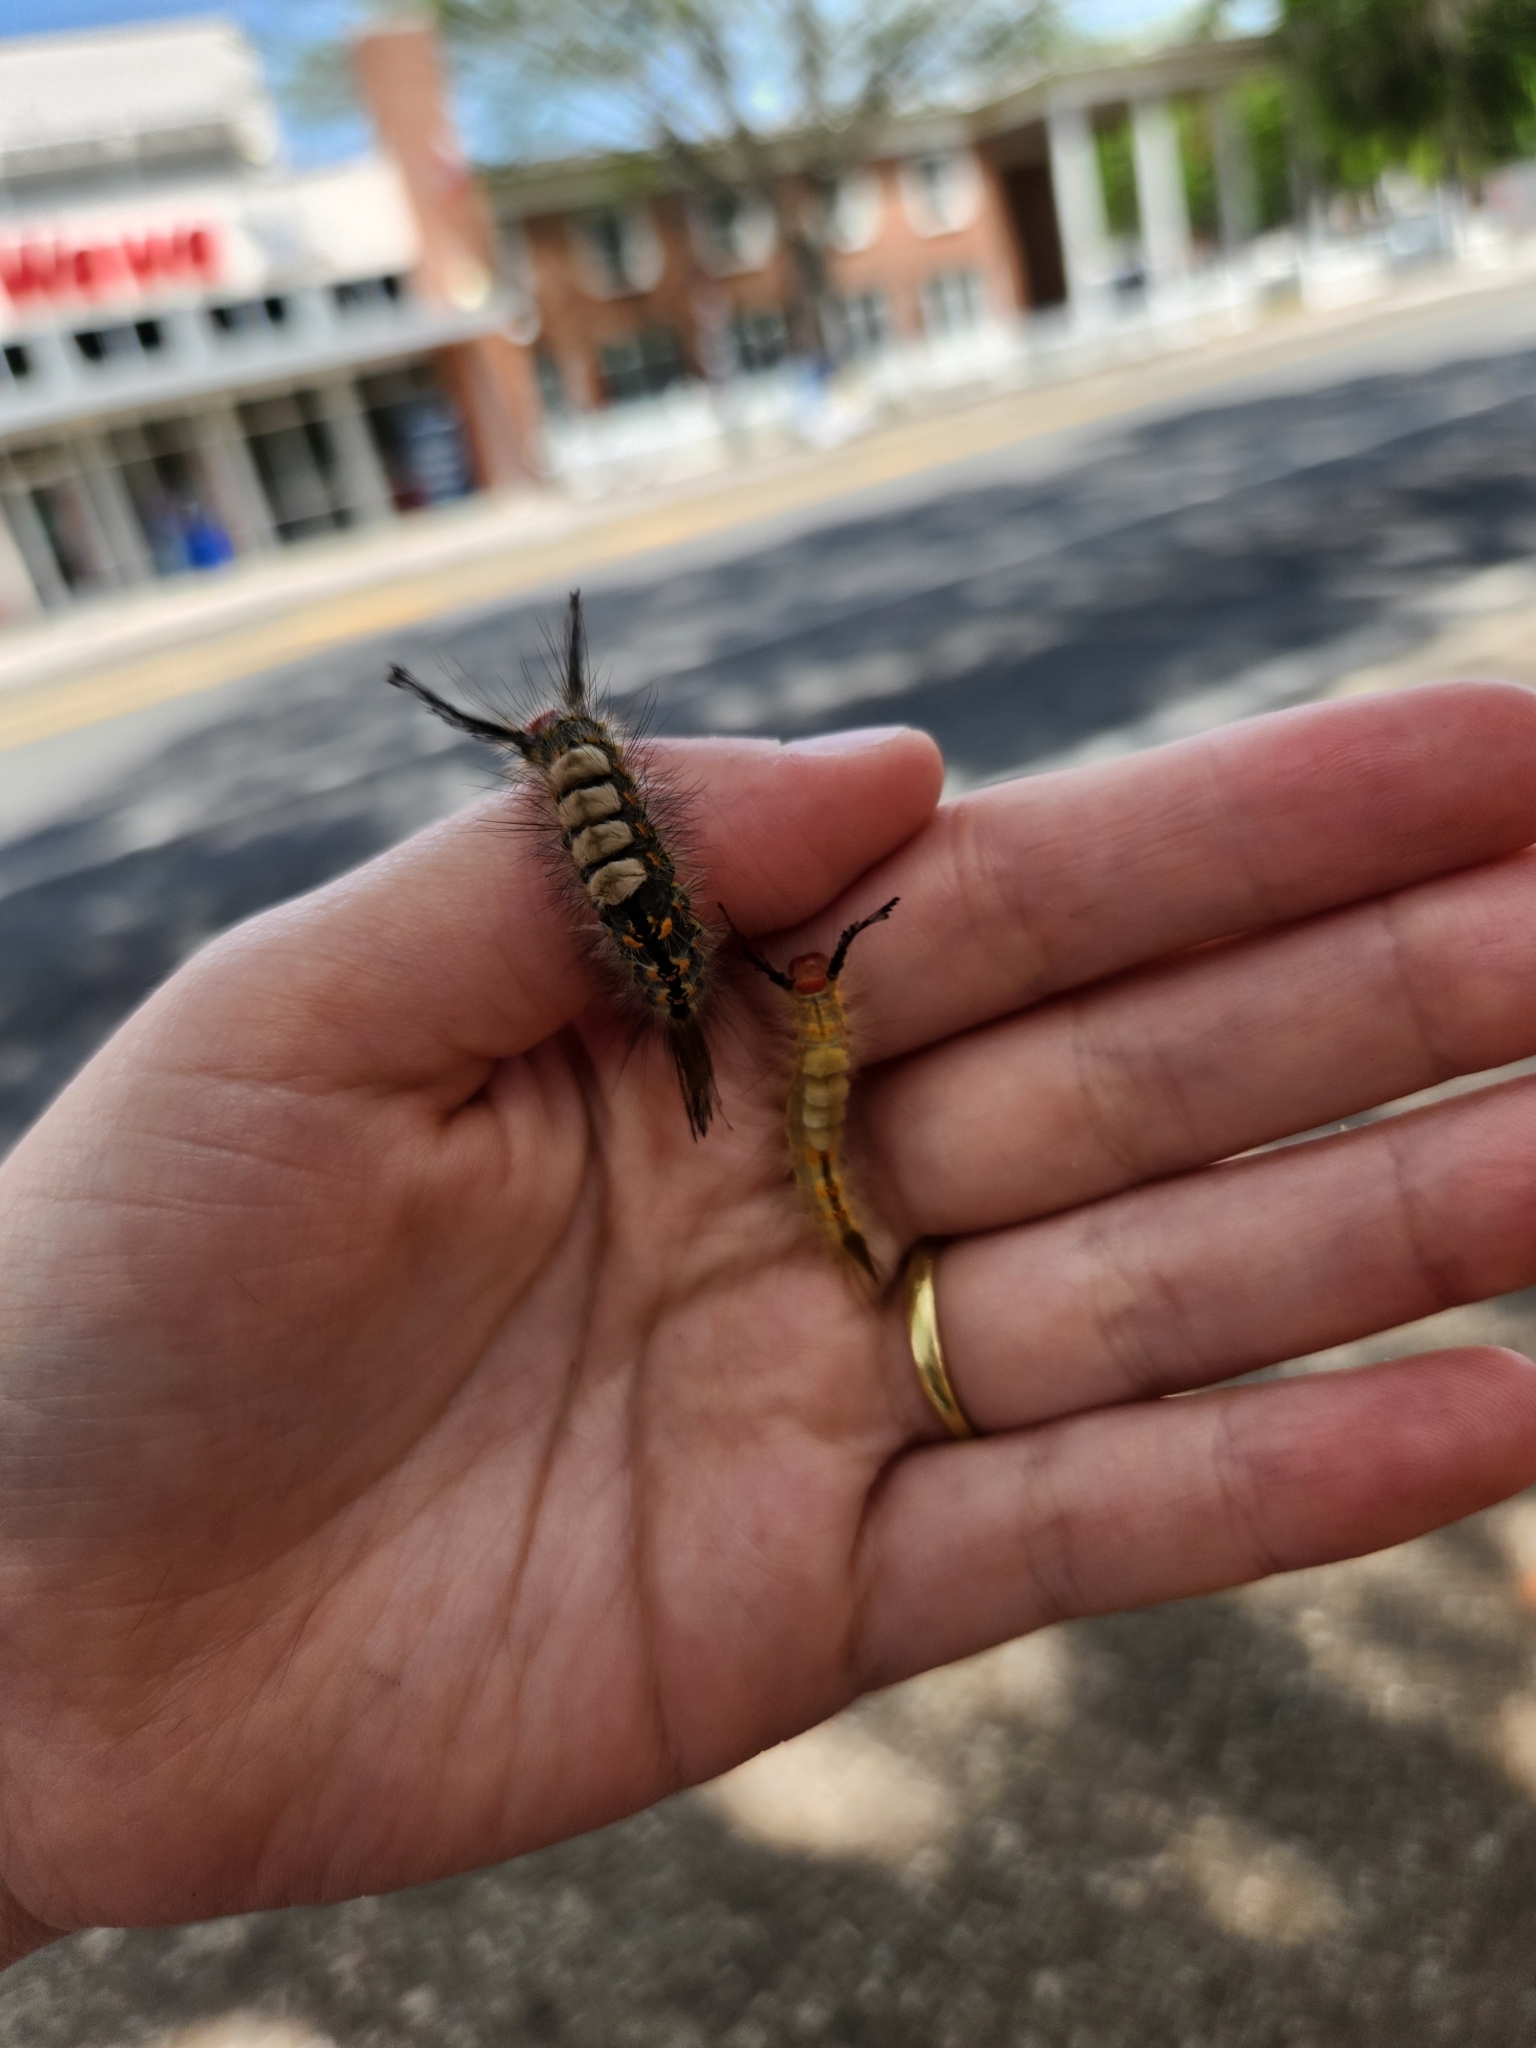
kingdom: Animalia
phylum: Arthropoda
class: Insecta
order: Lepidoptera
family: Erebidae
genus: Orgyia
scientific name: Orgyia detrita
